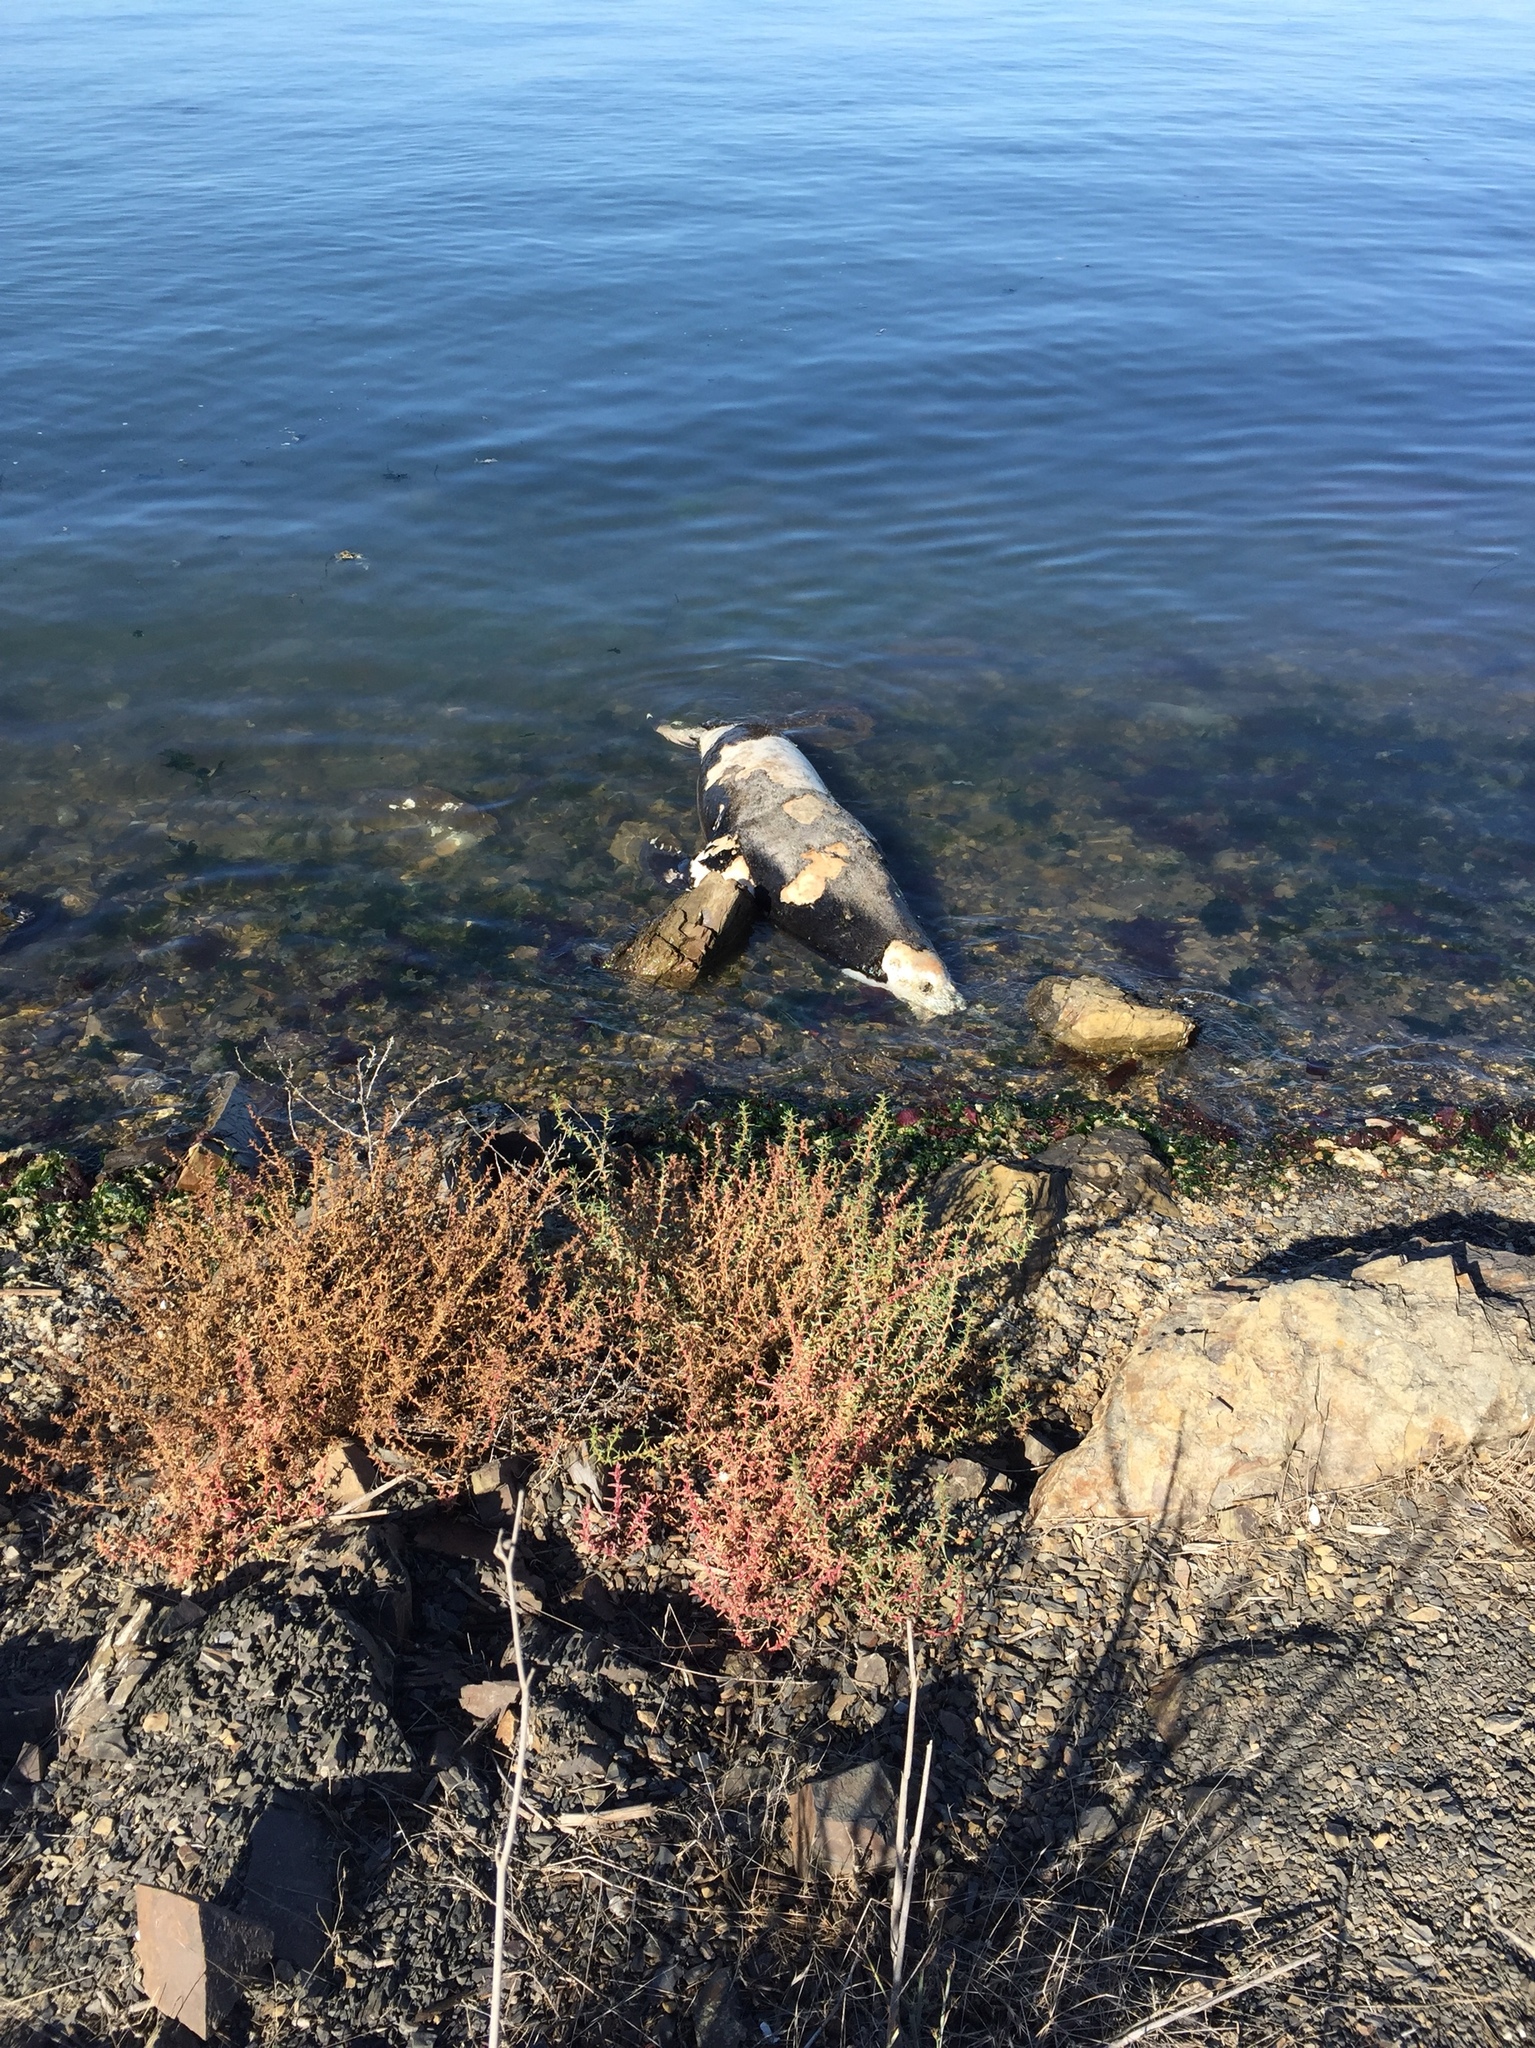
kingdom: Animalia
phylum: Chordata
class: Mammalia
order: Carnivora
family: Otariidae
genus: Zalophus
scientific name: Zalophus californianus
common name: California sea lion
